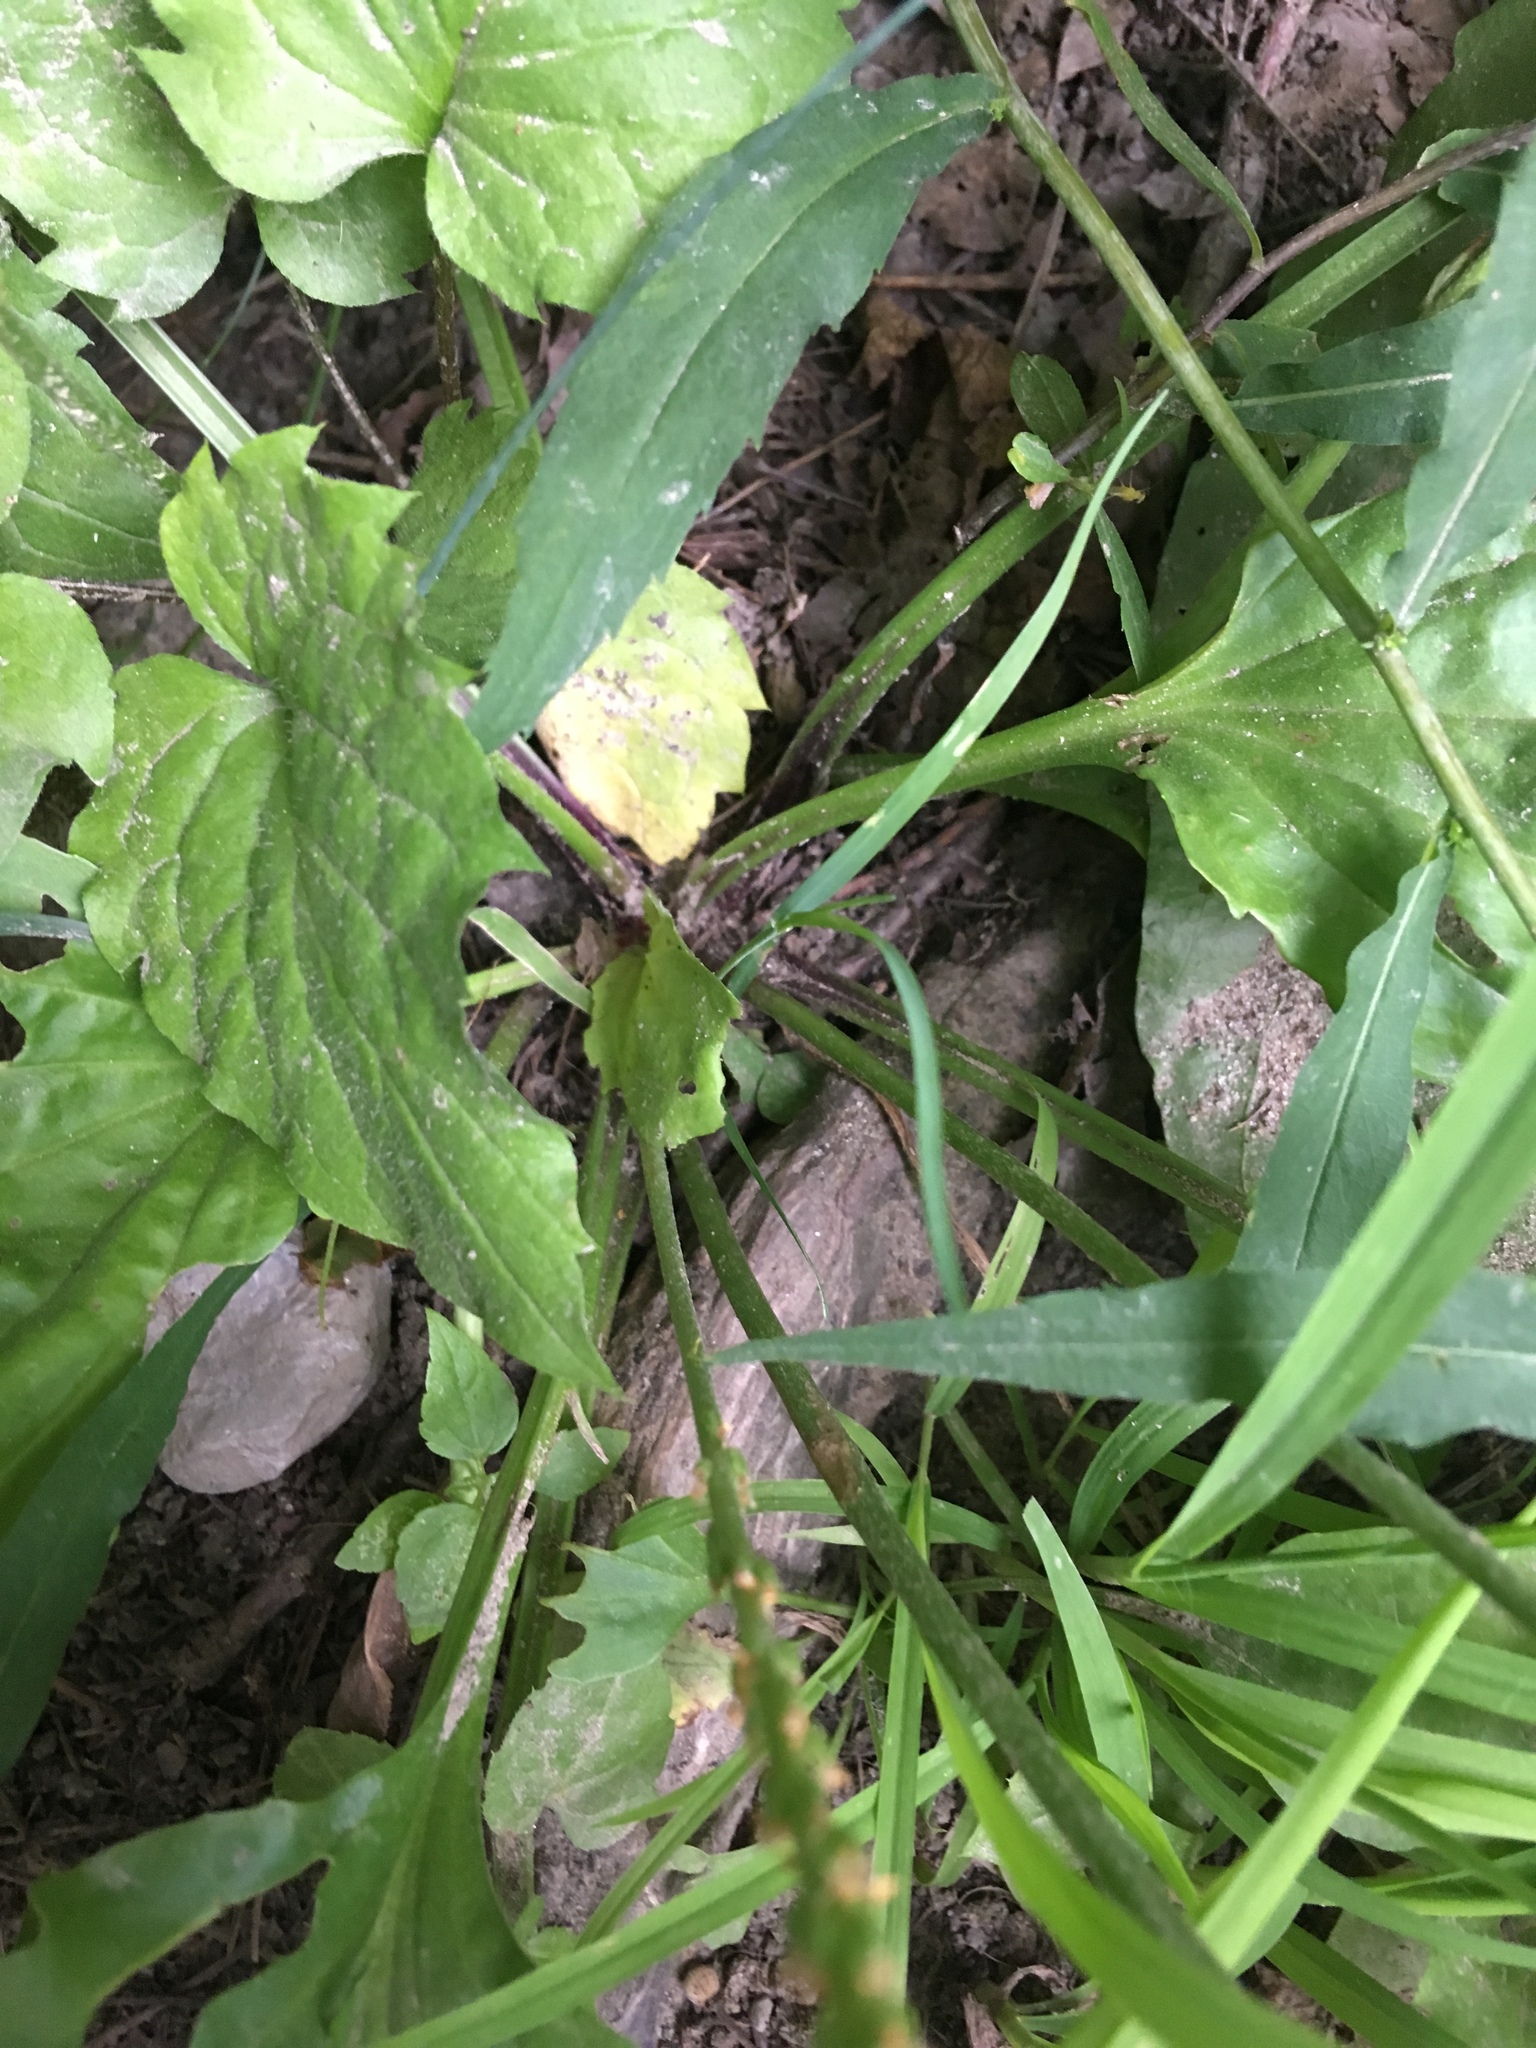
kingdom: Plantae
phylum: Tracheophyta
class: Magnoliopsida
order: Lamiales
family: Plantaginaceae
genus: Plantago
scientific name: Plantago rugelii
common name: American plantain
